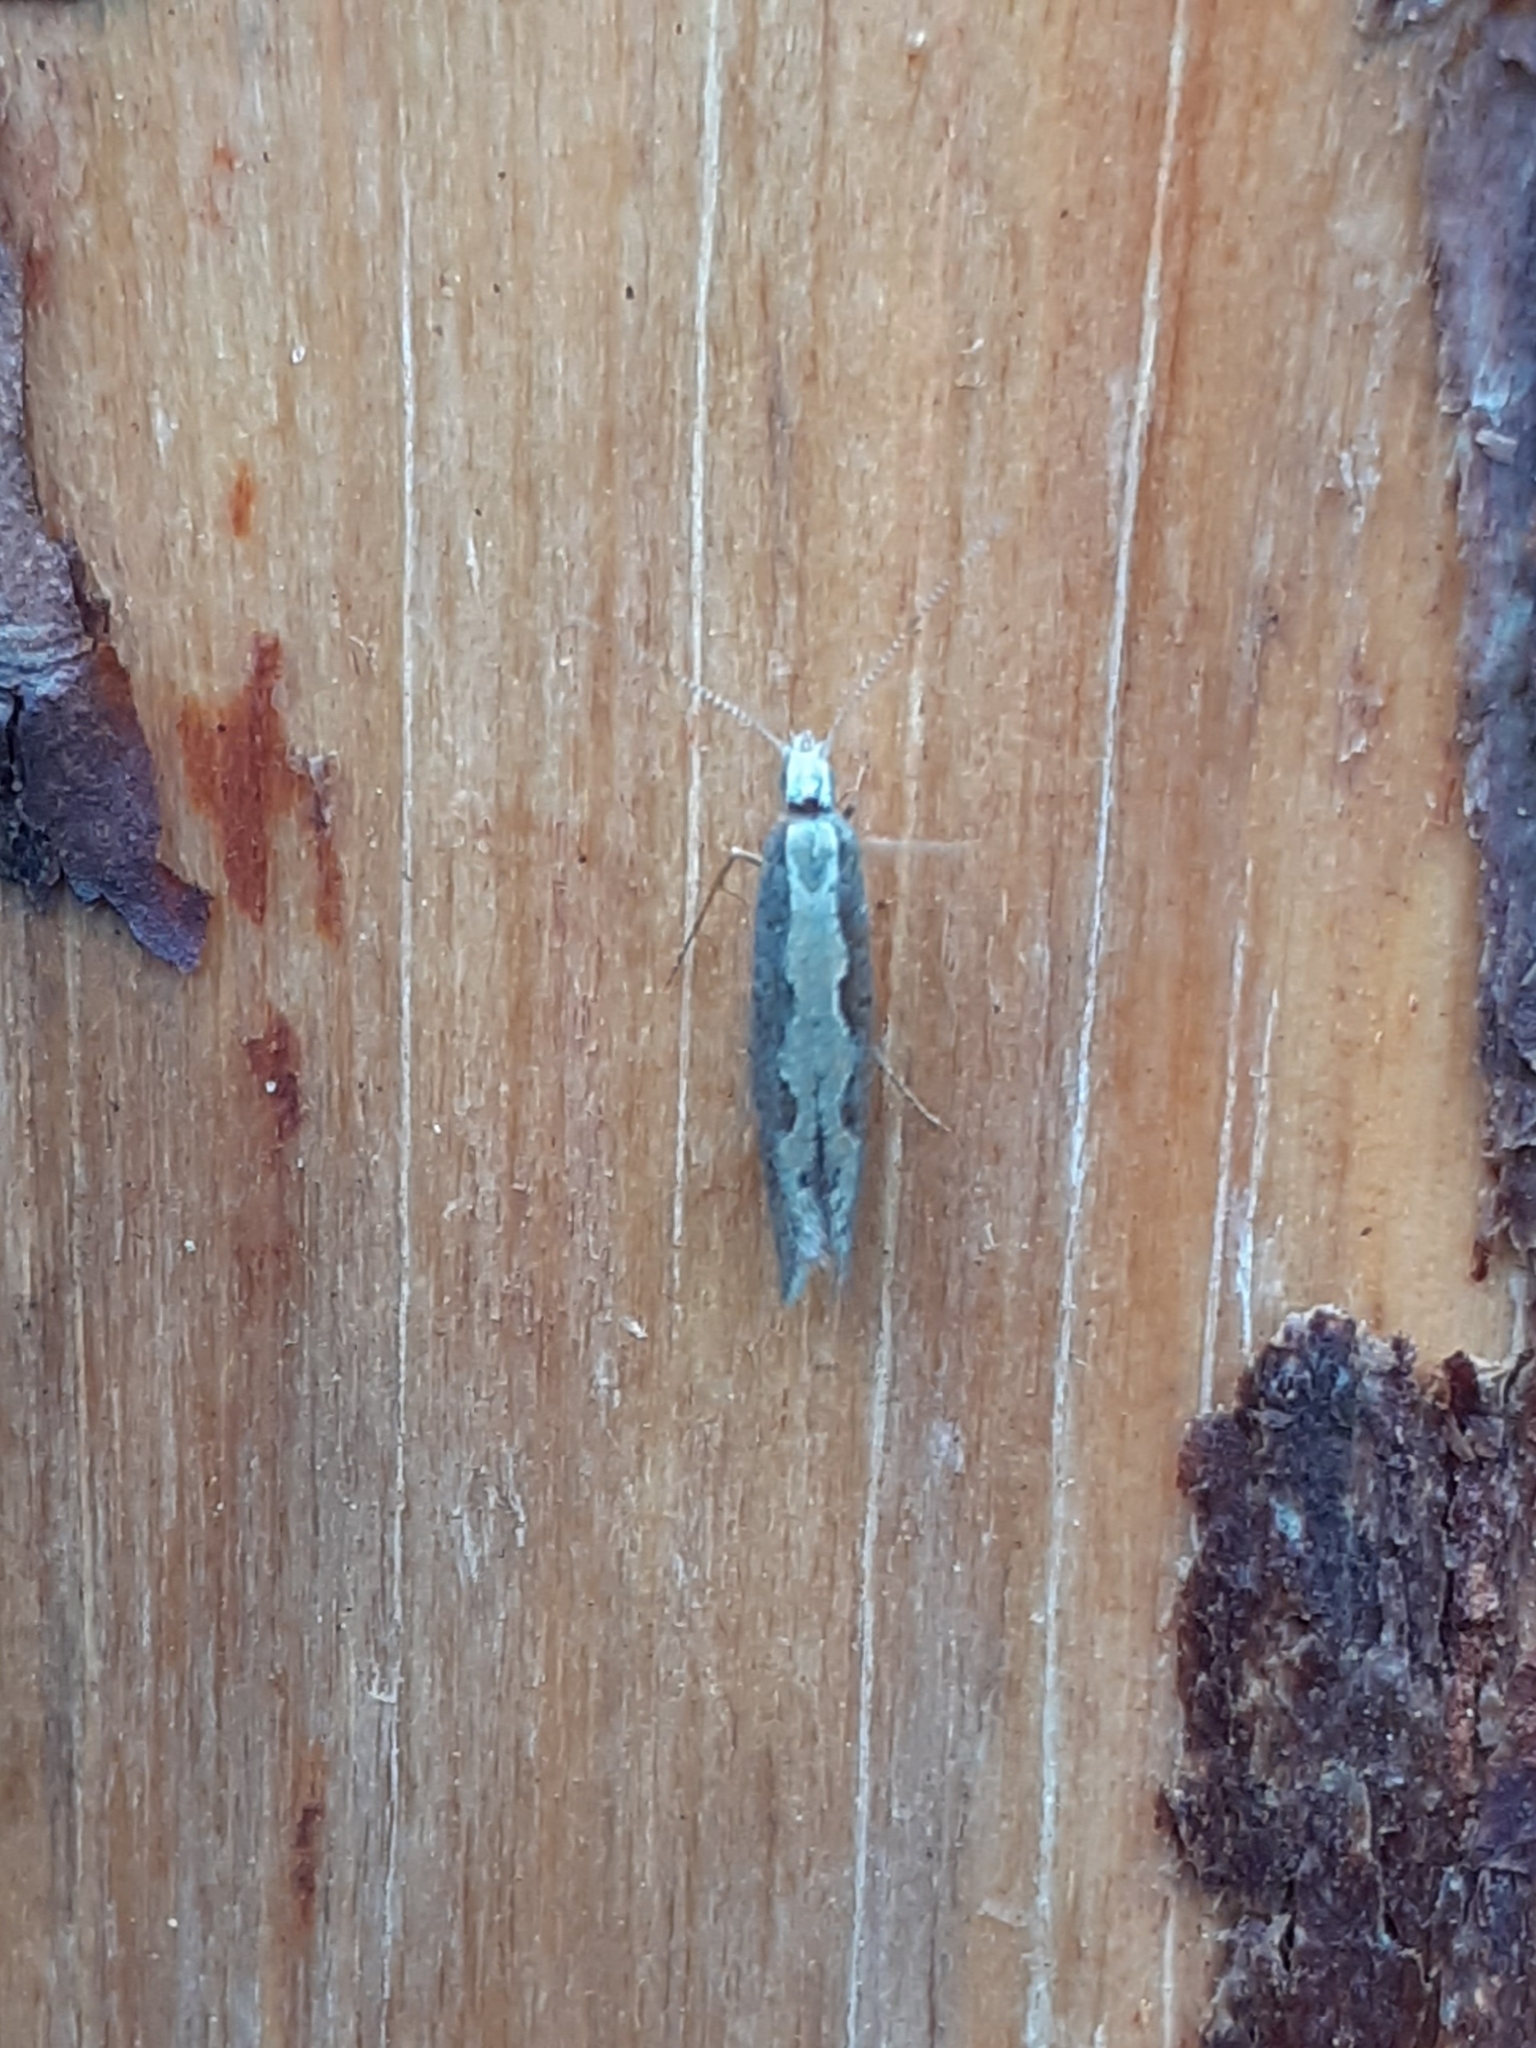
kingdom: Animalia
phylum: Arthropoda
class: Insecta
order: Lepidoptera
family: Plutellidae
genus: Plutella
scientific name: Plutella xylostella
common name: Diamond-back moth
